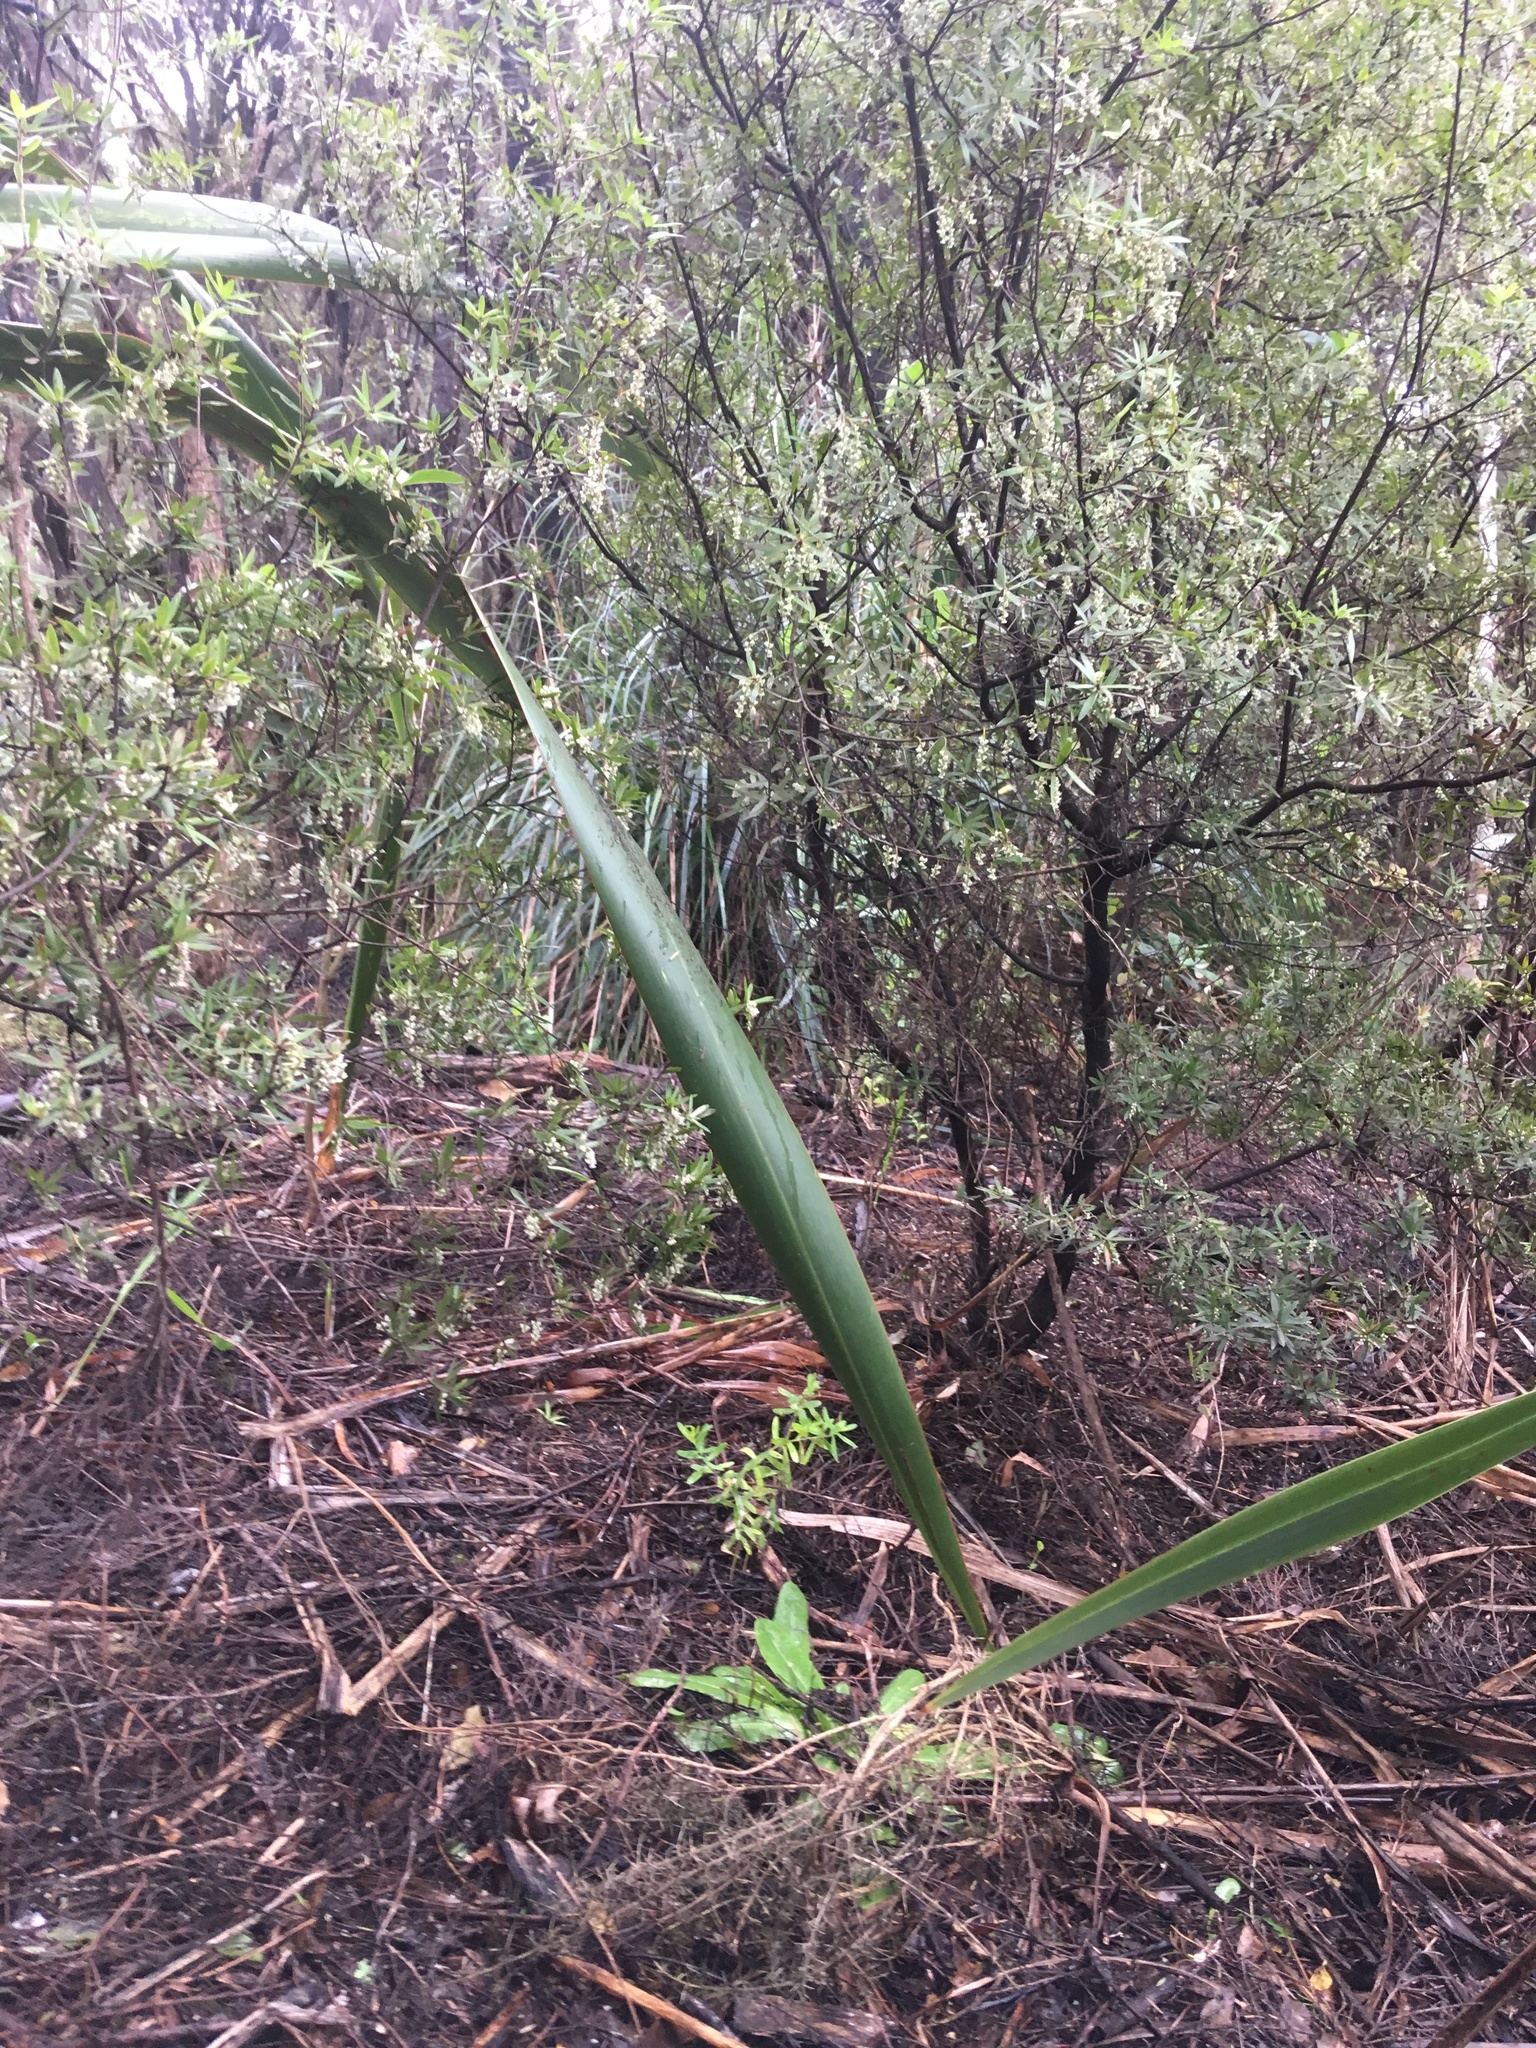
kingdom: Plantae
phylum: Tracheophyta
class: Magnoliopsida
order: Ericales
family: Ericaceae
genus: Leucopogon
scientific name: Leucopogon fasciculatus
